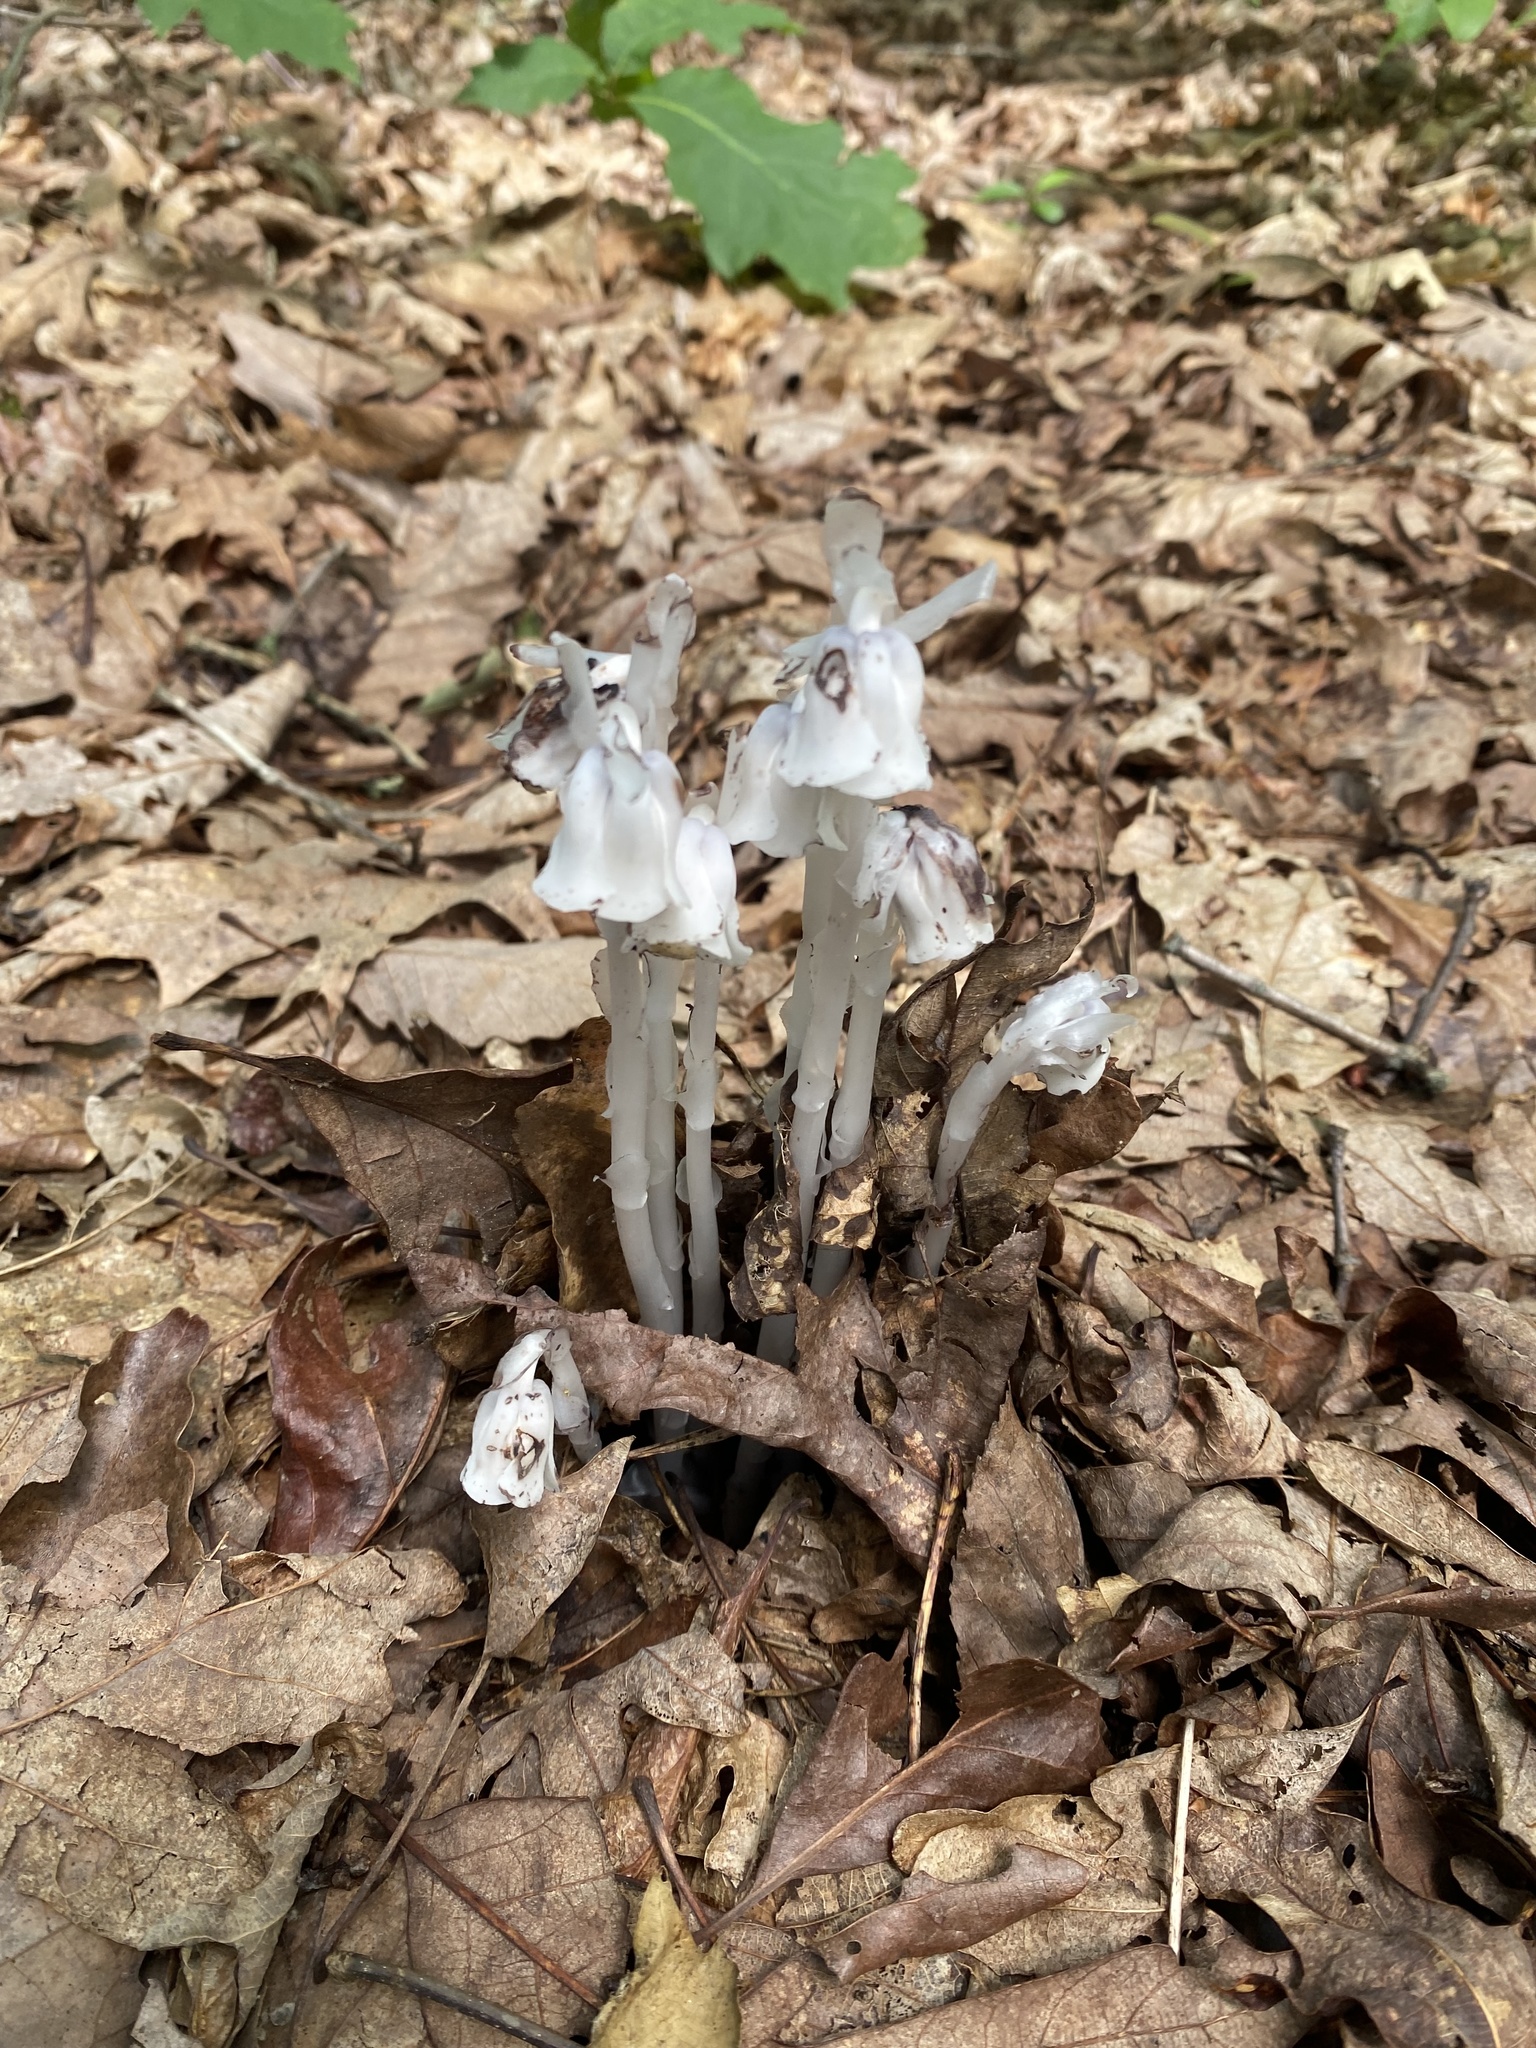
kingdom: Plantae
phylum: Tracheophyta
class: Magnoliopsida
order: Ericales
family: Ericaceae
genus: Monotropa
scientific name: Monotropa uniflora
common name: Convulsion root
